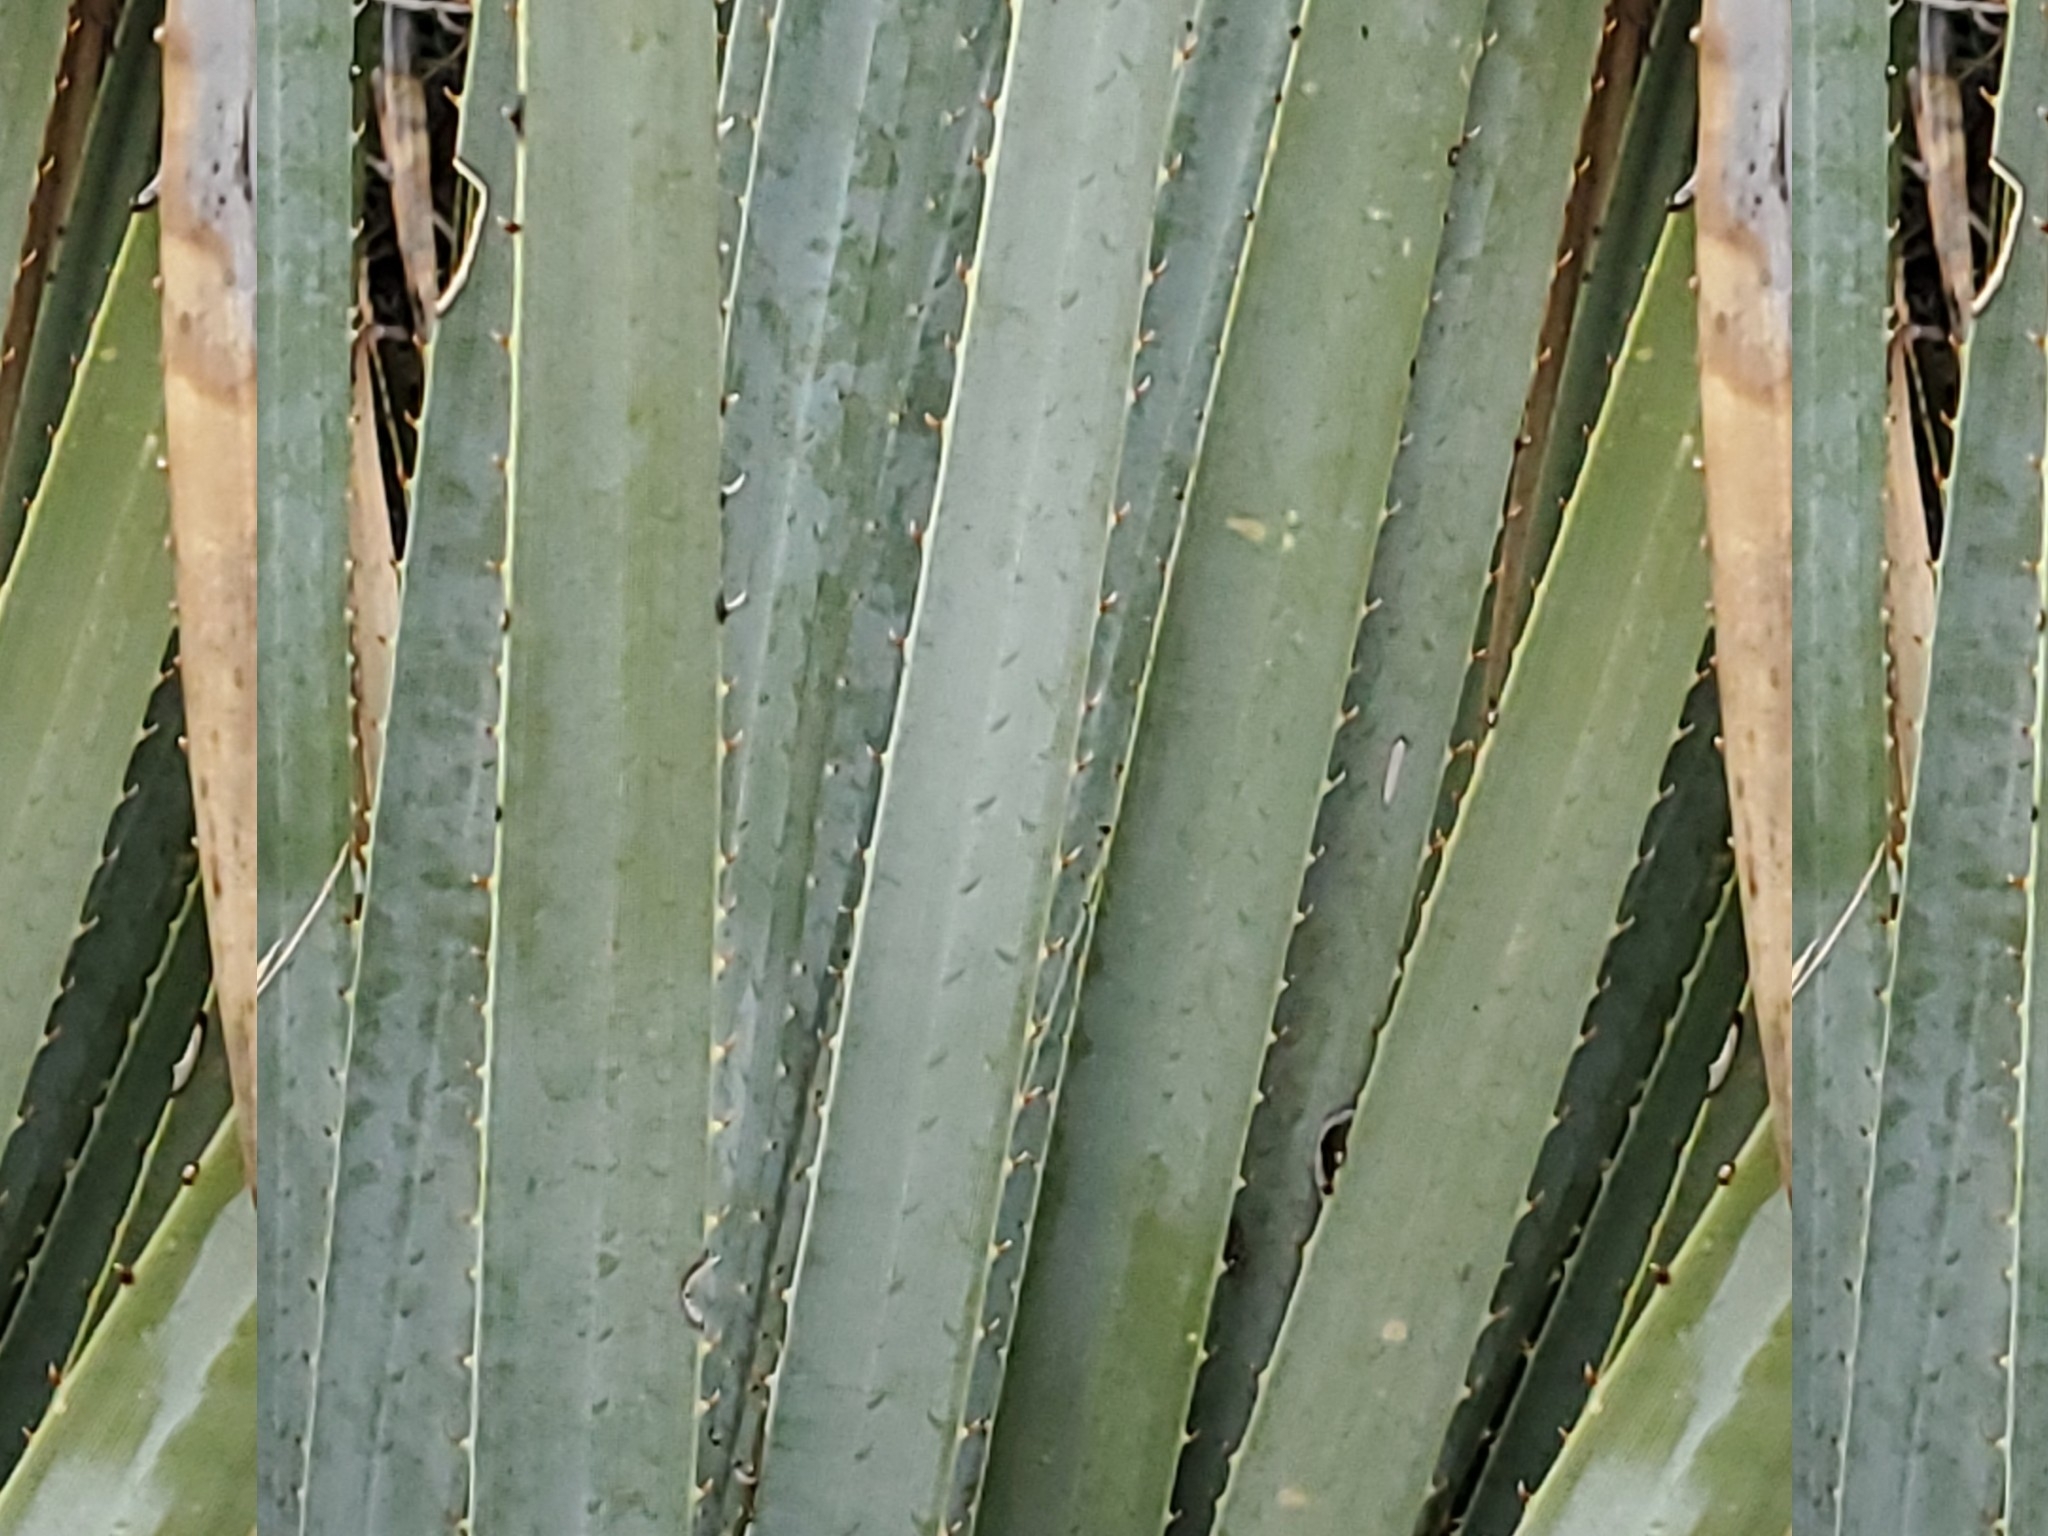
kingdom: Plantae
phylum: Tracheophyta
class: Liliopsida
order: Asparagales
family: Asparagaceae
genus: Dasylirion
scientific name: Dasylirion wheeleri
